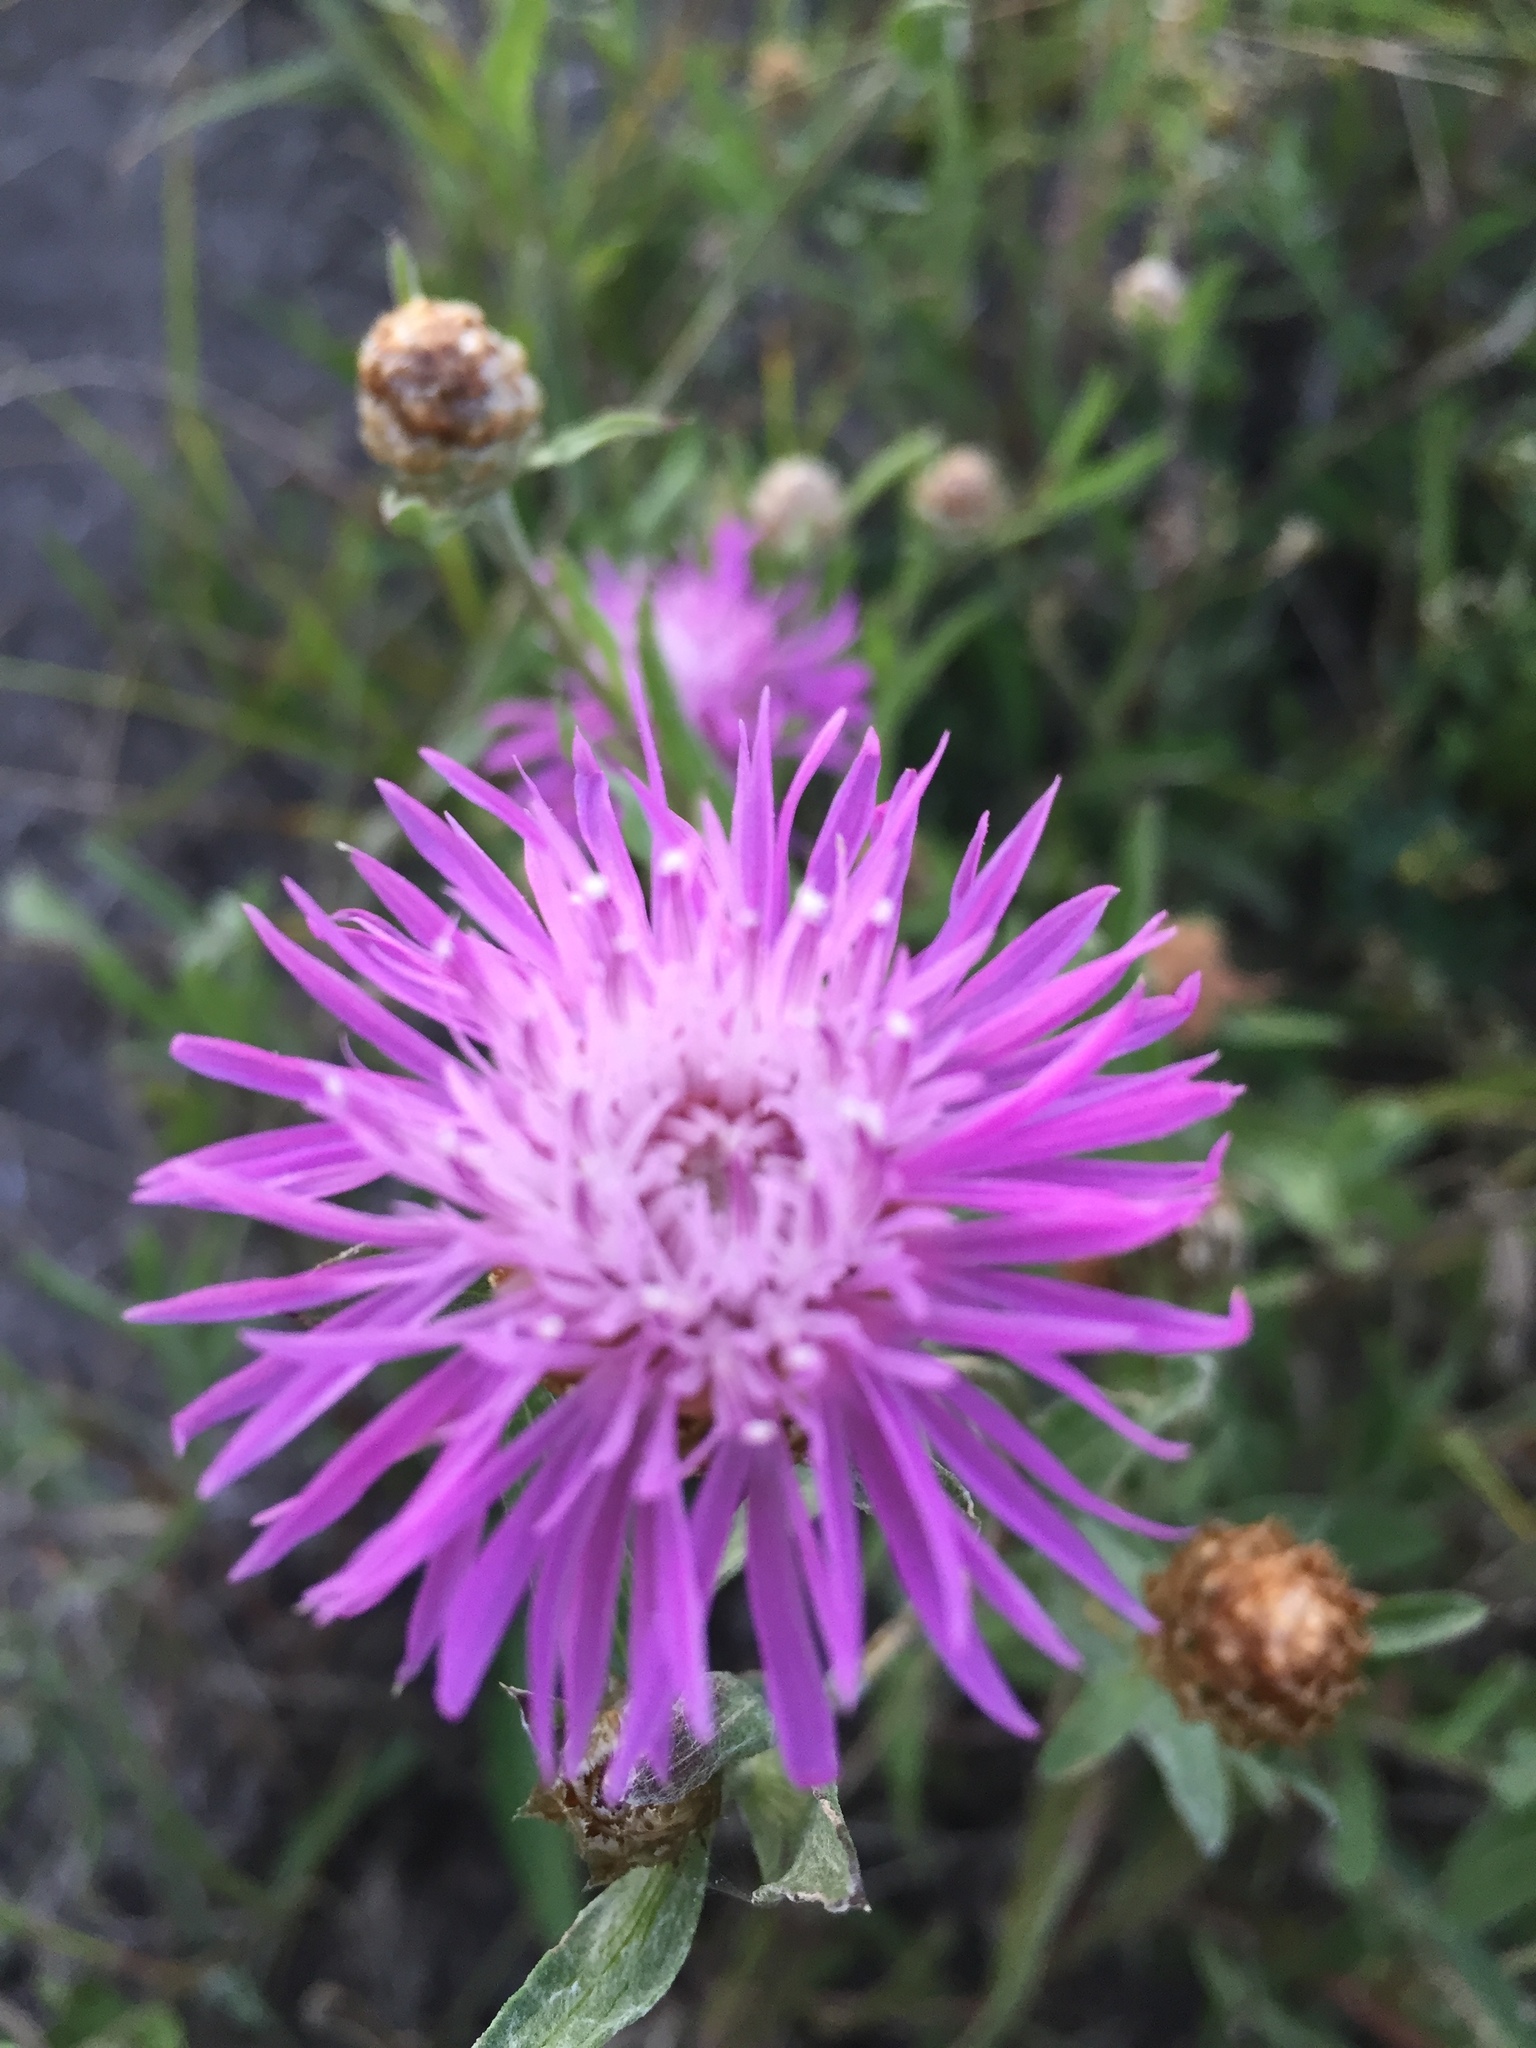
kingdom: Plantae
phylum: Tracheophyta
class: Magnoliopsida
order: Asterales
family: Asteraceae
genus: Centaurea
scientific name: Centaurea jacea
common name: Brown knapweed
